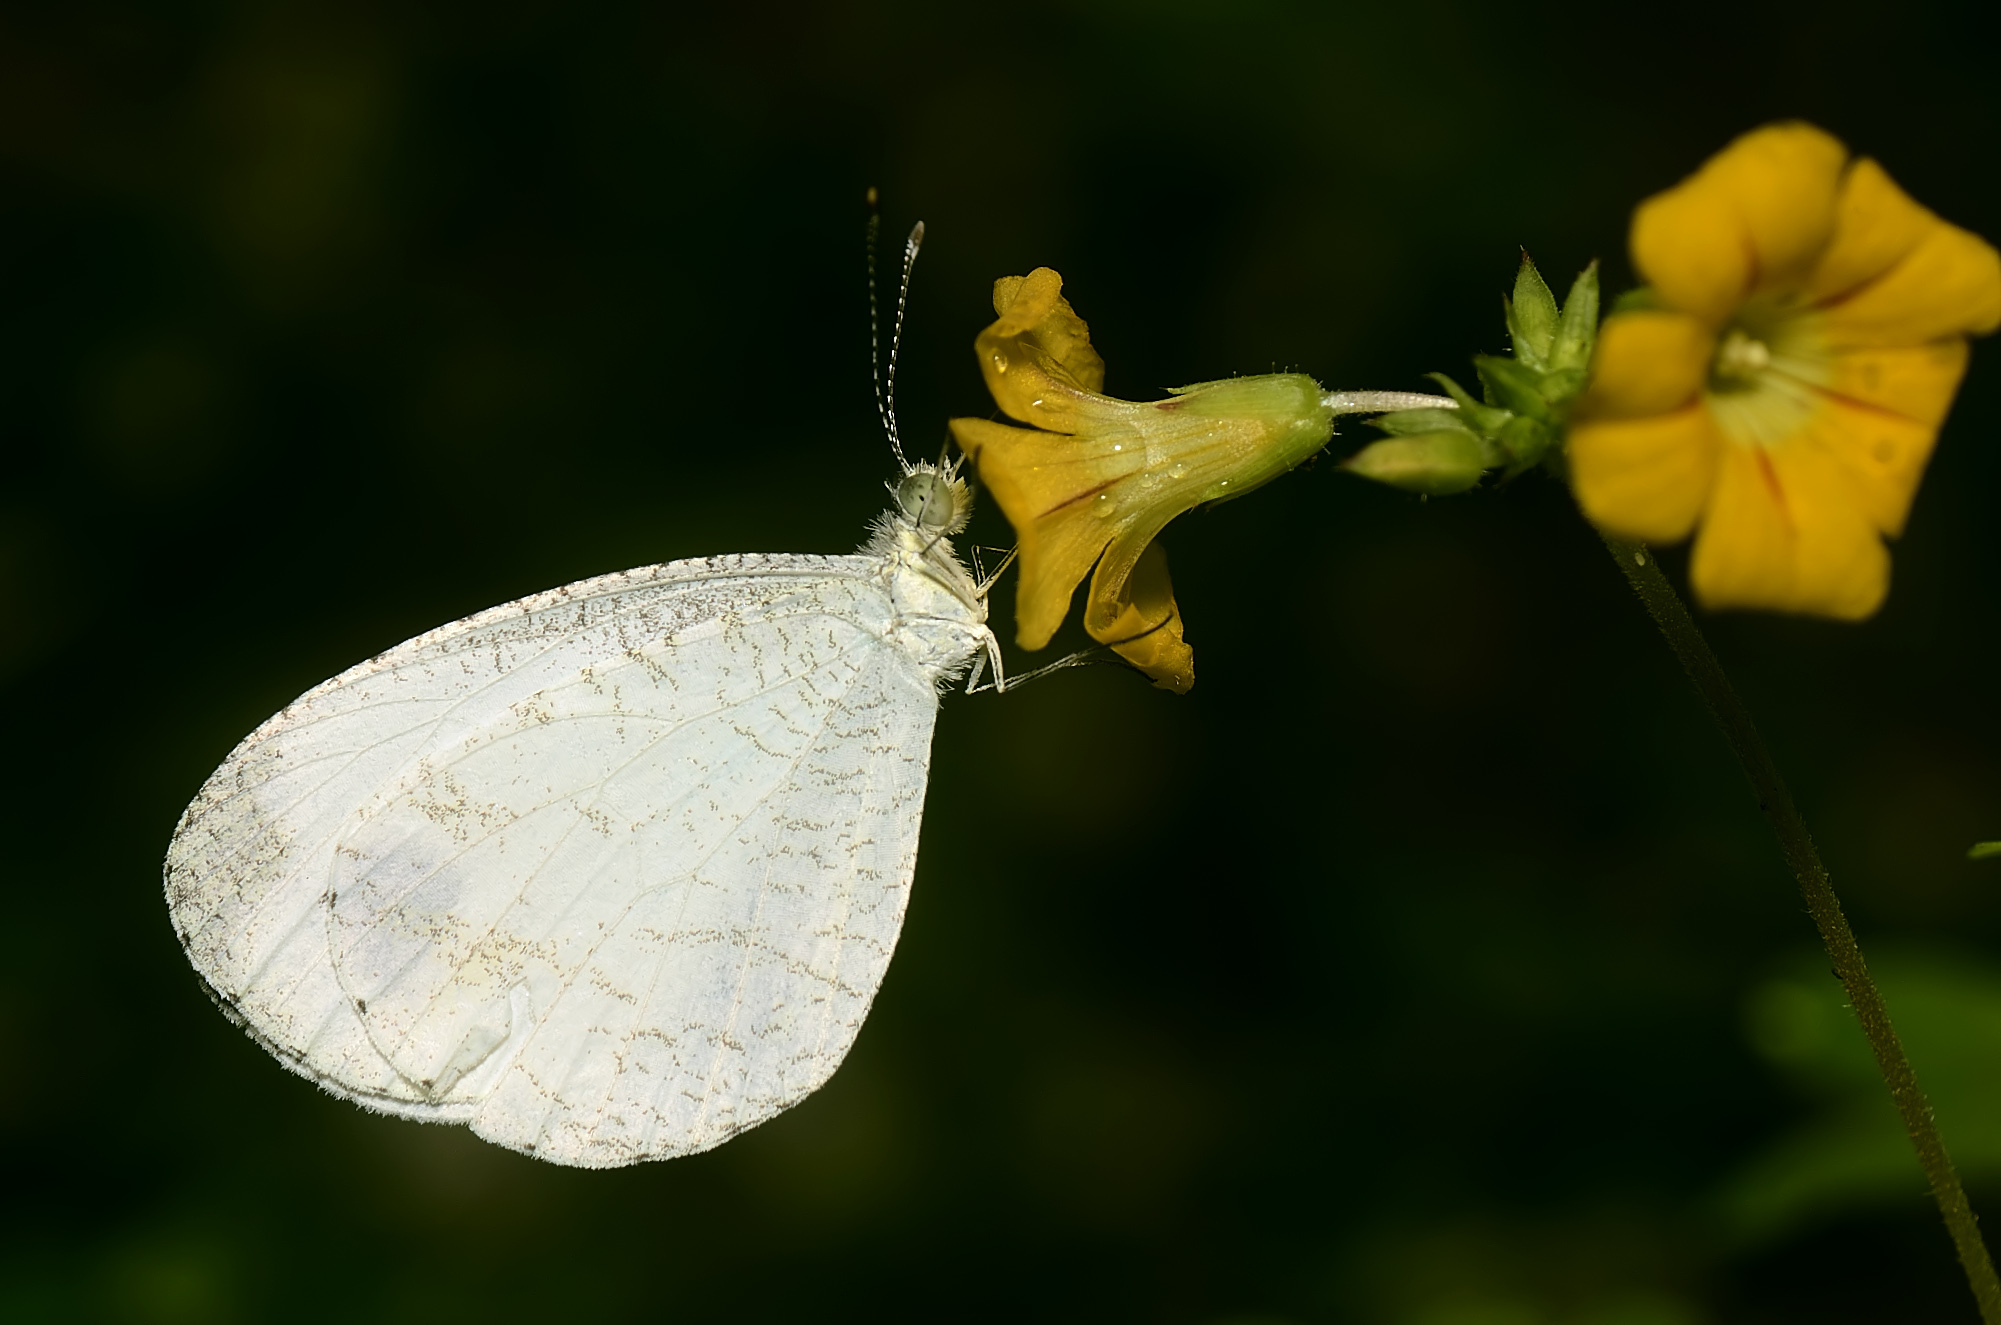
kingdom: Animalia
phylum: Arthropoda
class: Insecta
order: Lepidoptera
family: Pieridae
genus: Leptosia
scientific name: Leptosia nina
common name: Psyche
